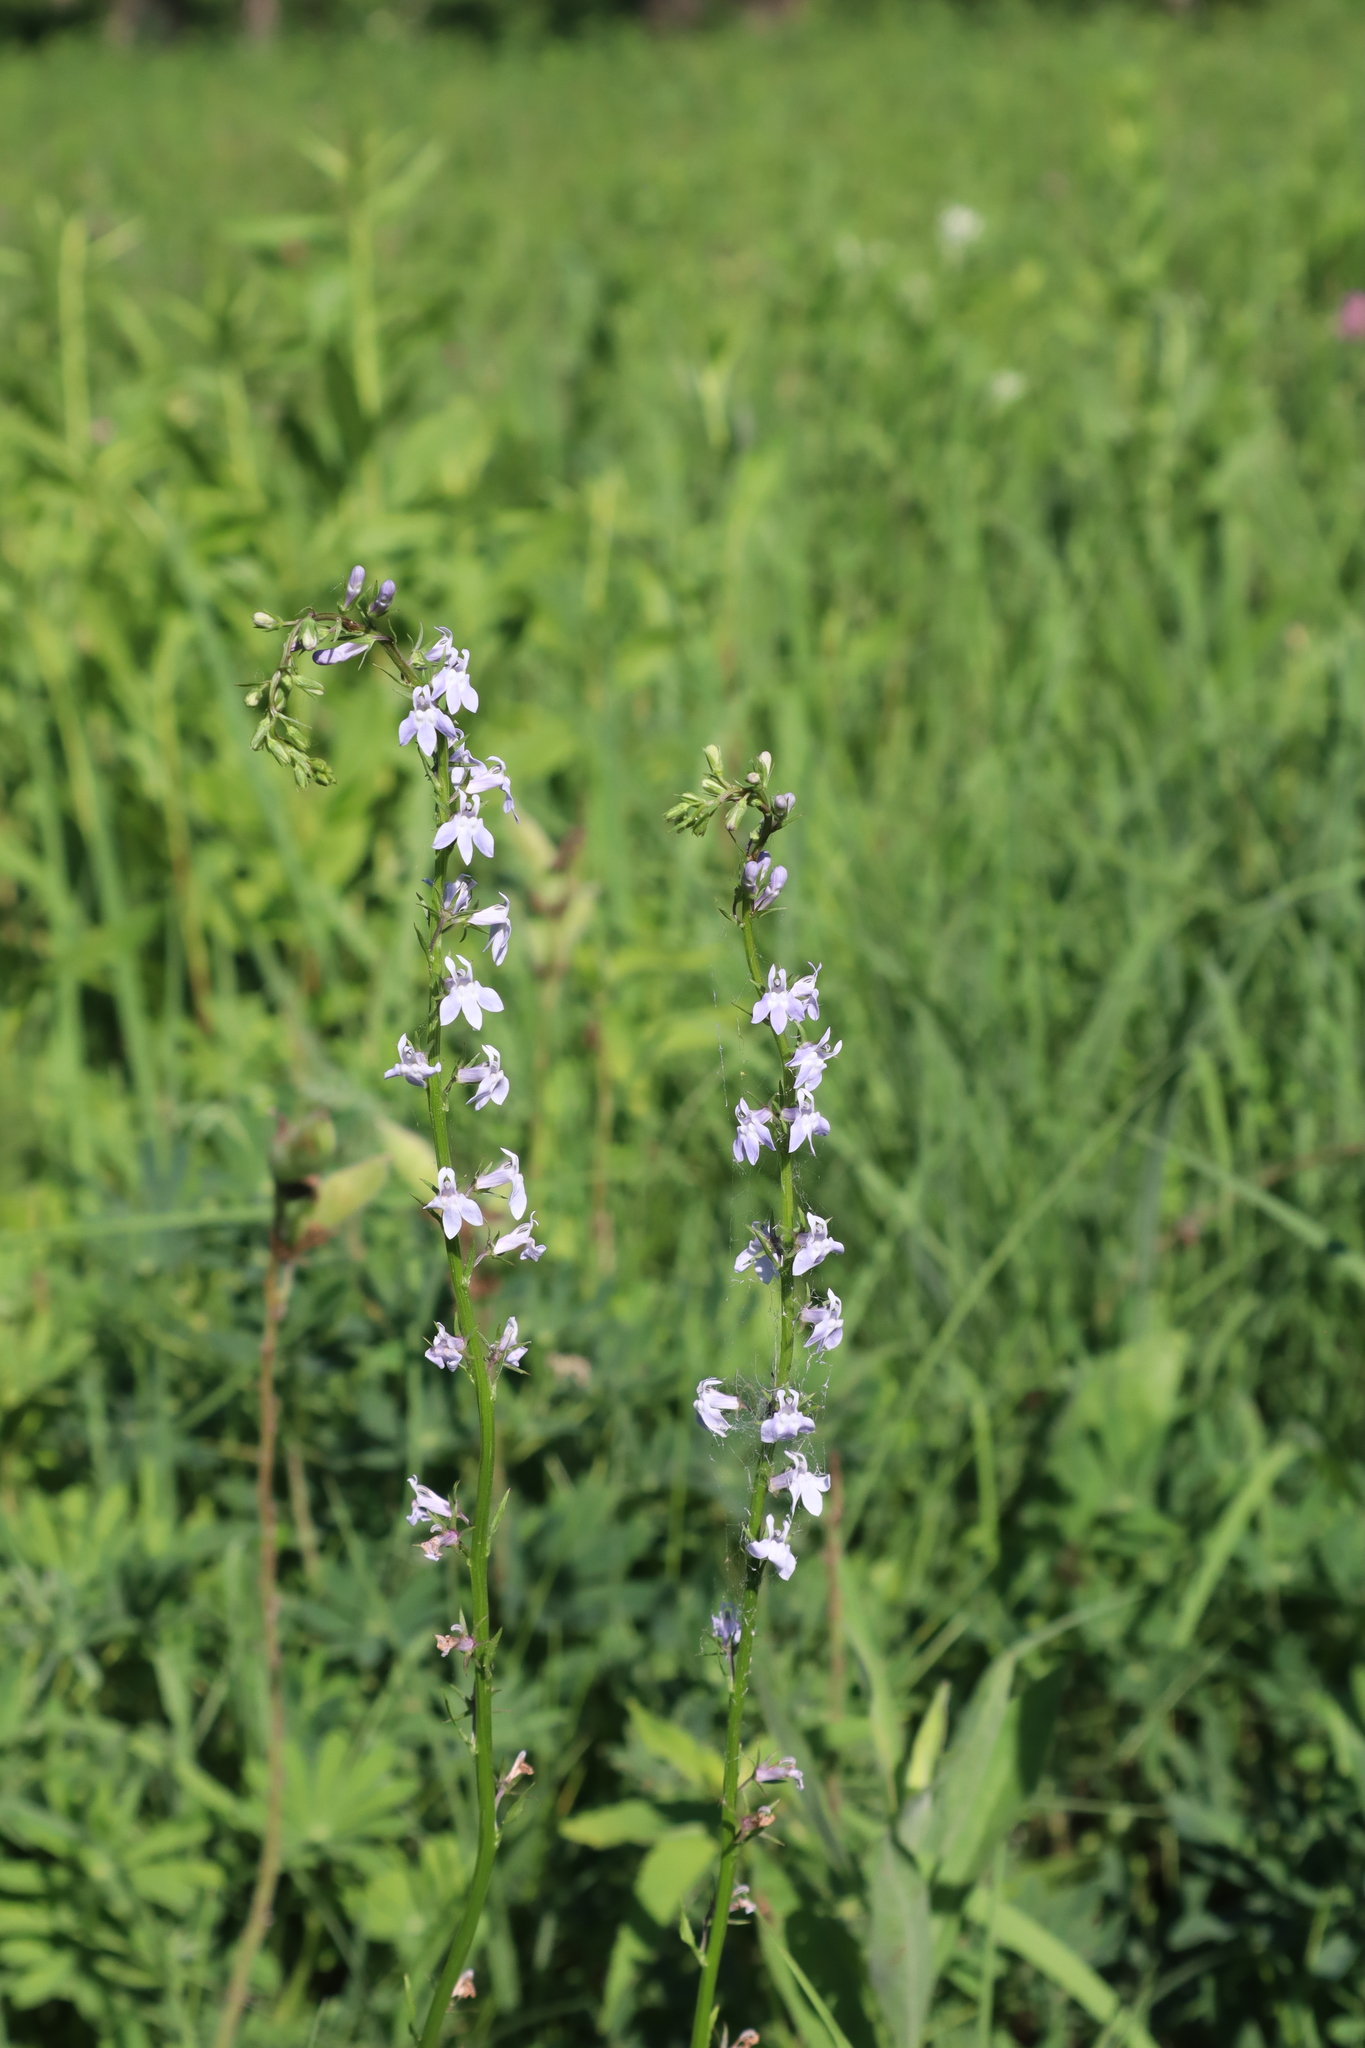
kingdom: Plantae
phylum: Tracheophyta
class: Magnoliopsida
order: Asterales
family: Campanulaceae
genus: Lobelia
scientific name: Lobelia spicata
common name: Pale-spike lobelia
